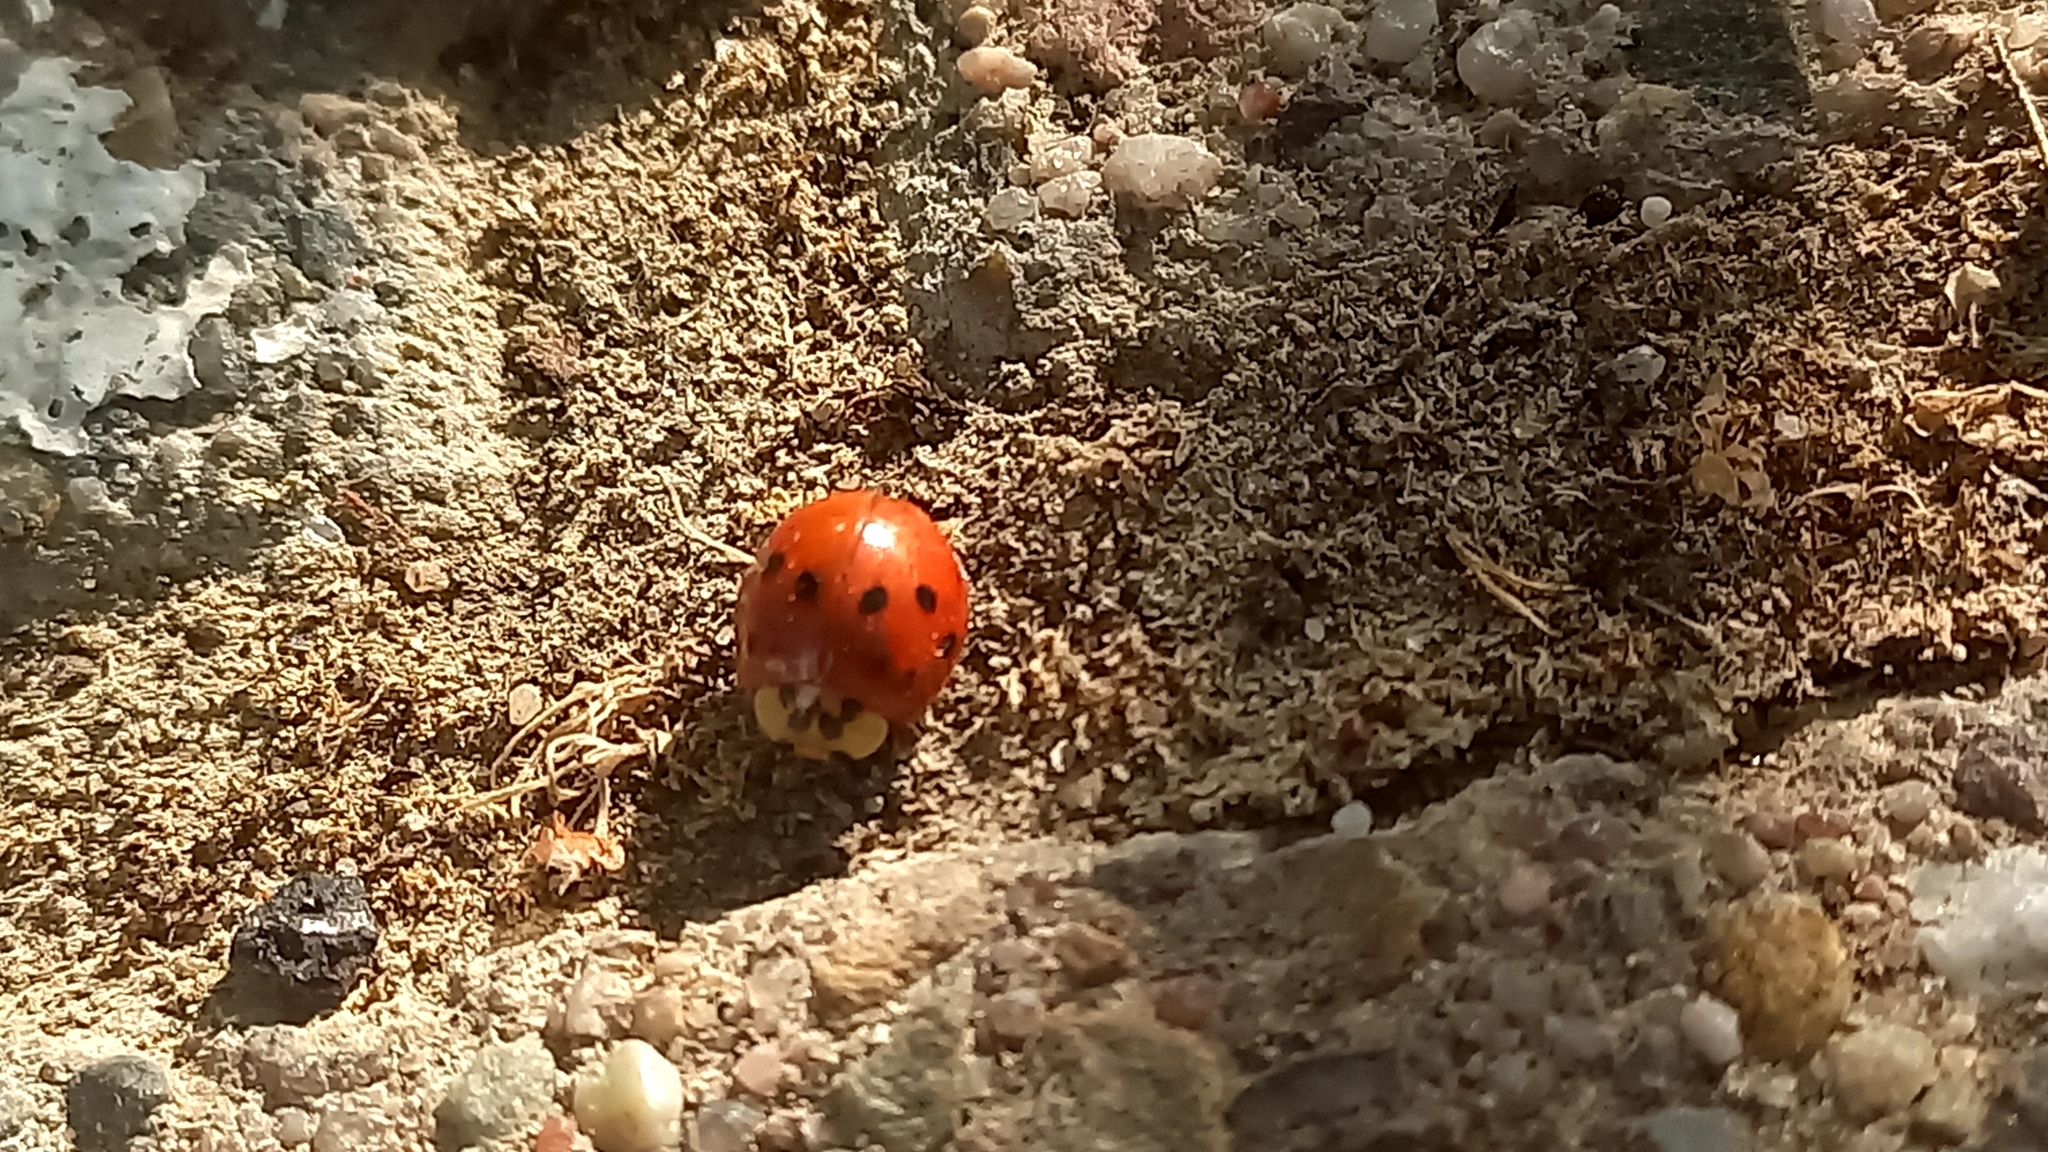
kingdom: Animalia
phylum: Arthropoda
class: Insecta
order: Coleoptera
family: Coccinellidae
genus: Harmonia
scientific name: Harmonia axyridis
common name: Harlequin ladybird
